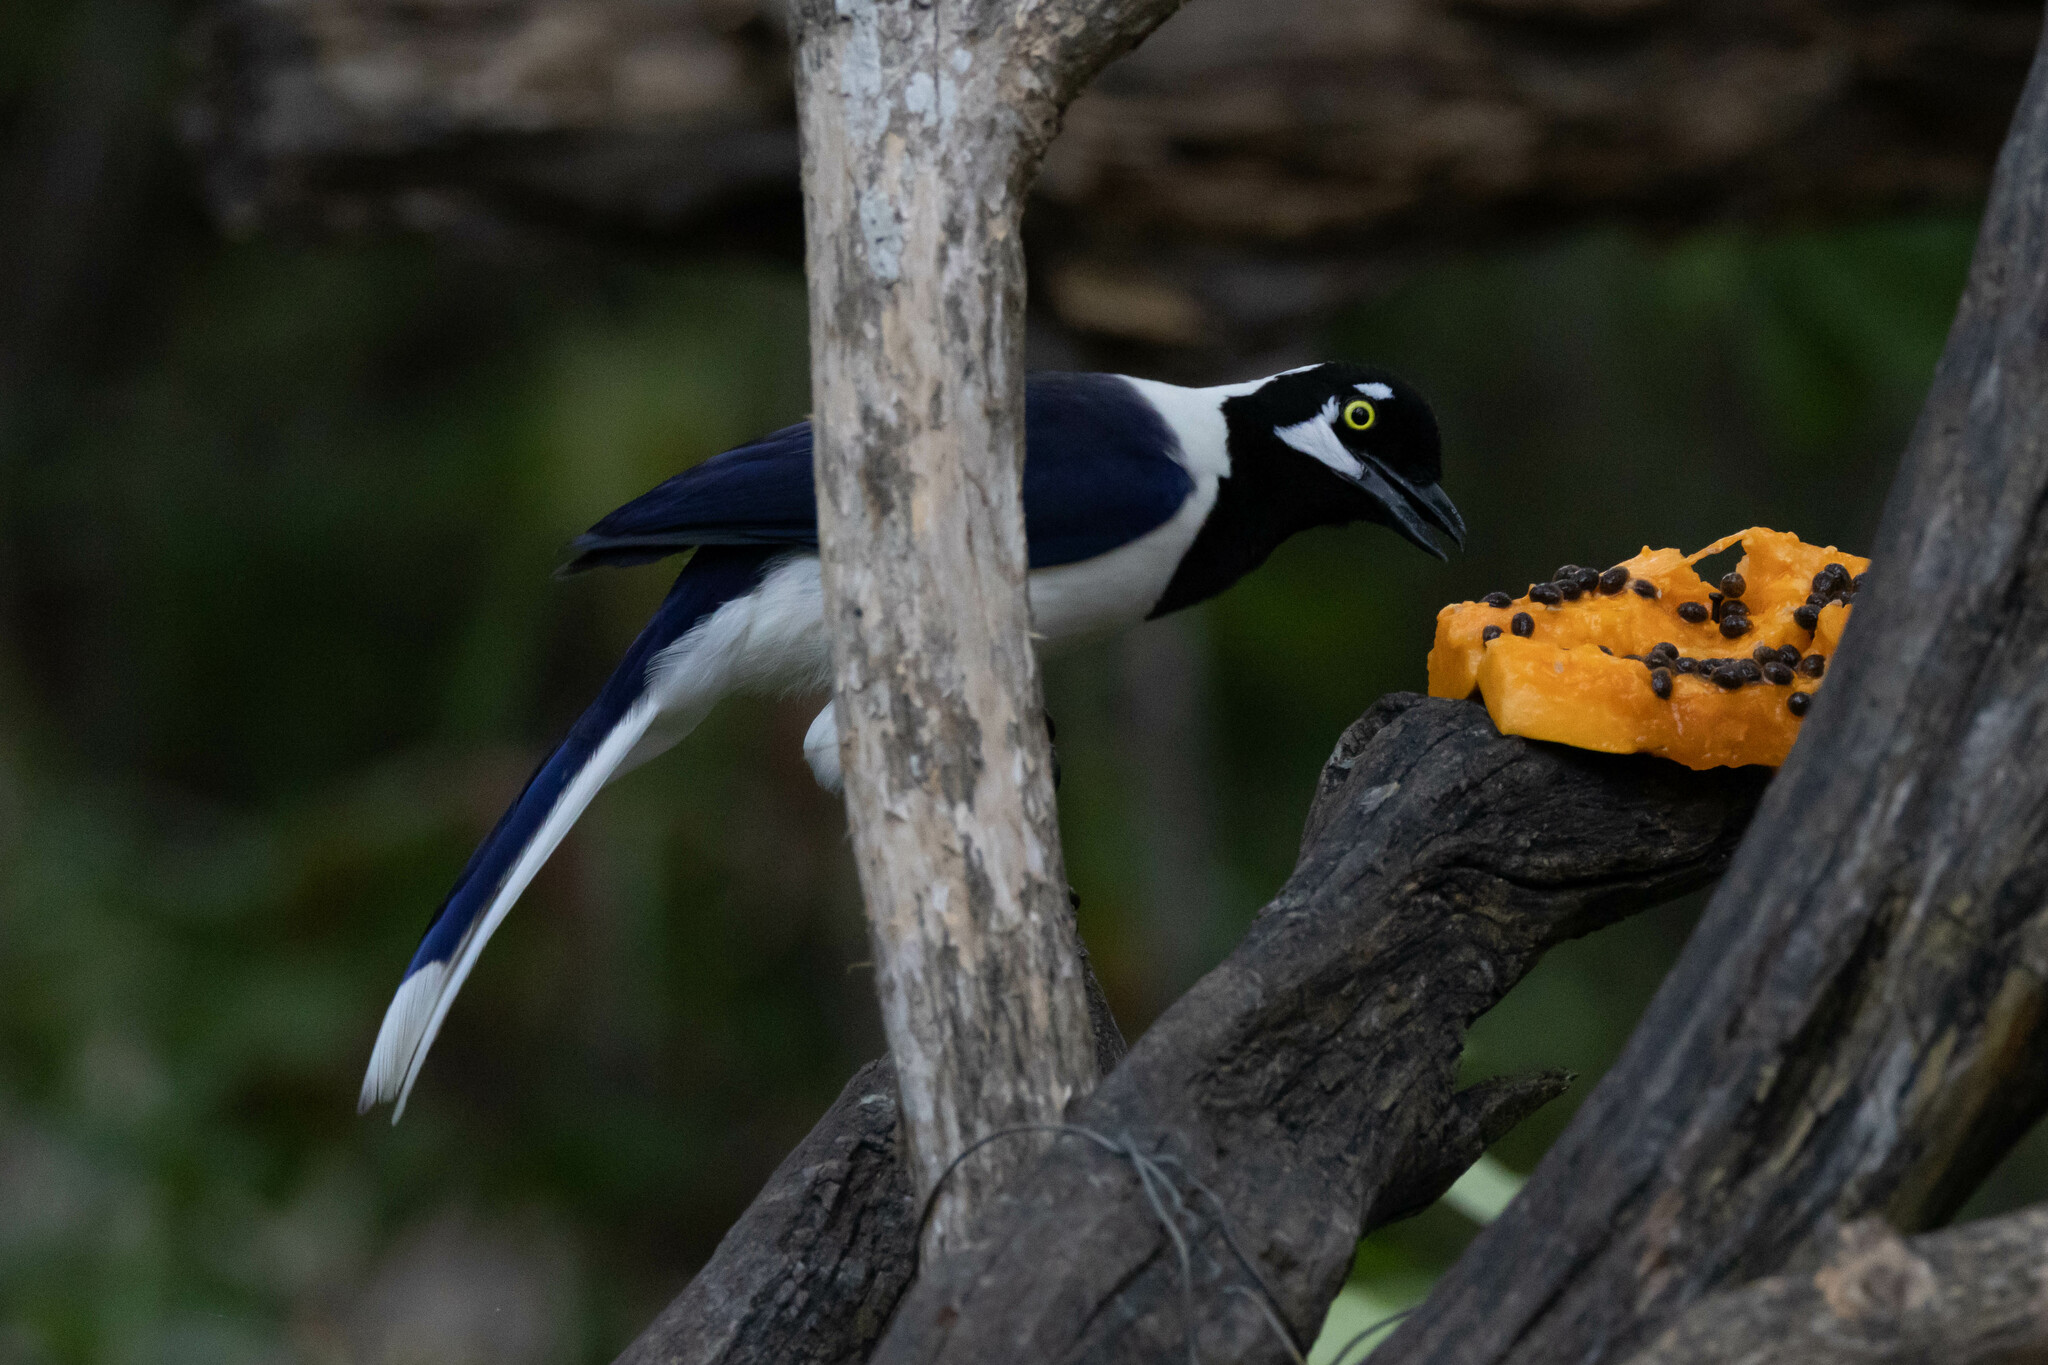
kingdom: Animalia
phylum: Chordata
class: Aves
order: Passeriformes
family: Corvidae
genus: Cyanocorax
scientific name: Cyanocorax mystacalis
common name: White-tailed jay
